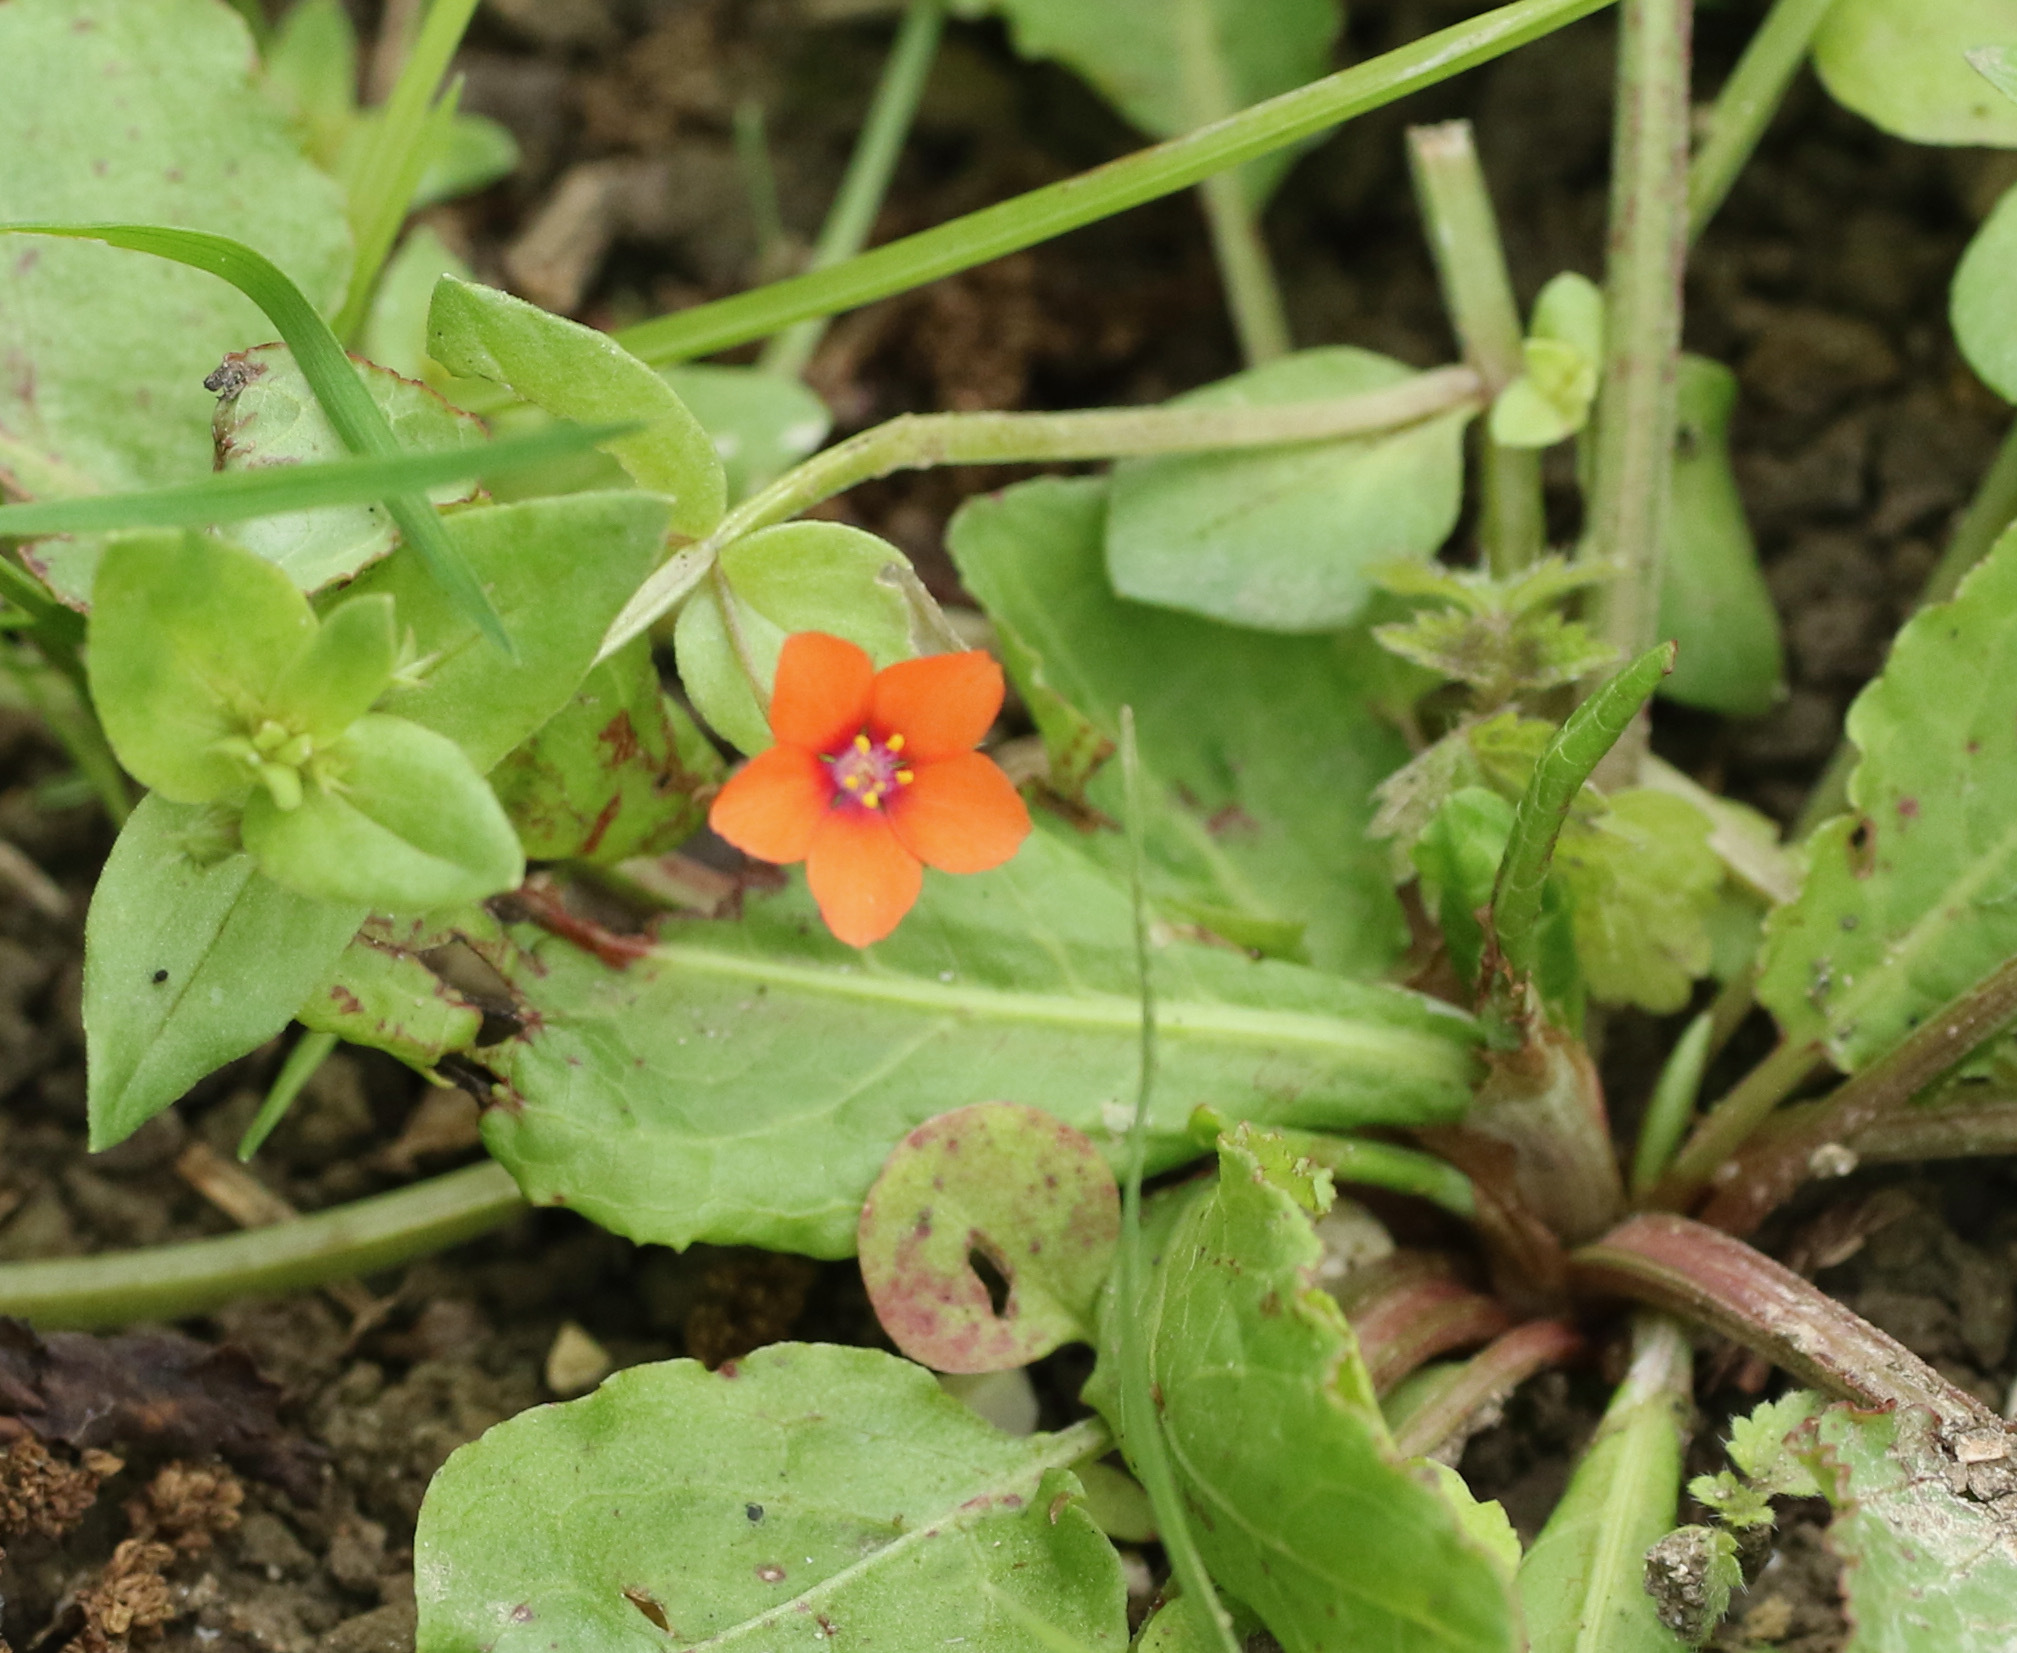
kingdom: Plantae
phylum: Tracheophyta
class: Magnoliopsida
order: Ericales
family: Primulaceae
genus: Lysimachia
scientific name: Lysimachia arvensis
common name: Scarlet pimpernel
